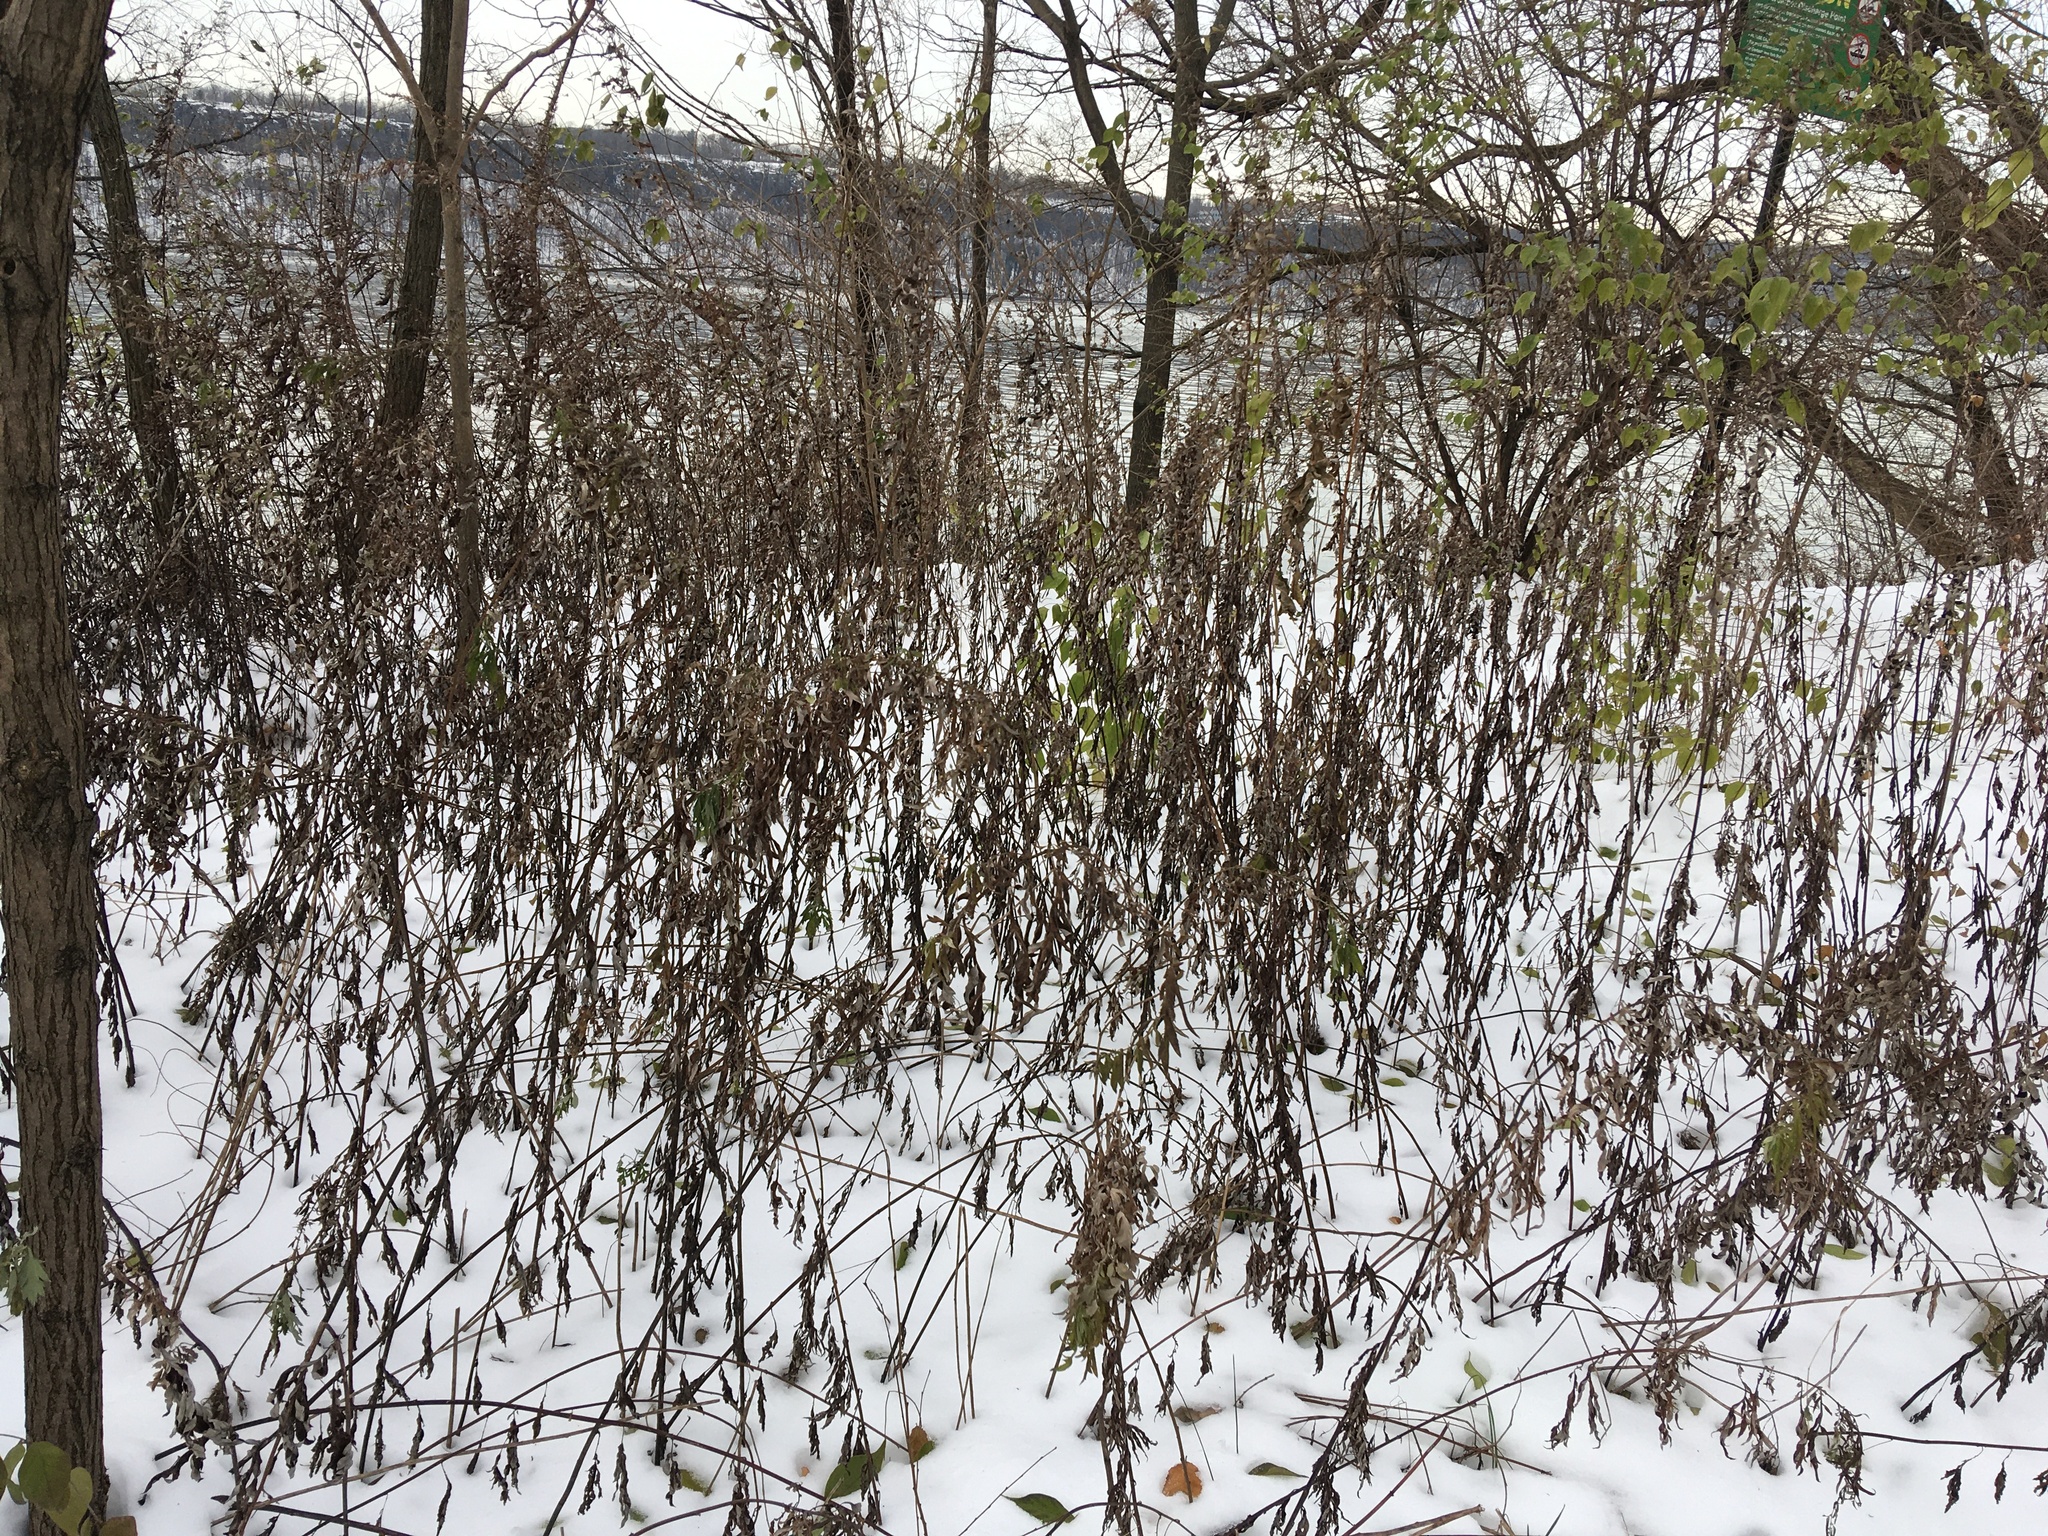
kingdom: Plantae
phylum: Tracheophyta
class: Magnoliopsida
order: Asterales
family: Asteraceae
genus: Artemisia
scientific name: Artemisia vulgaris
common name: Mugwort
